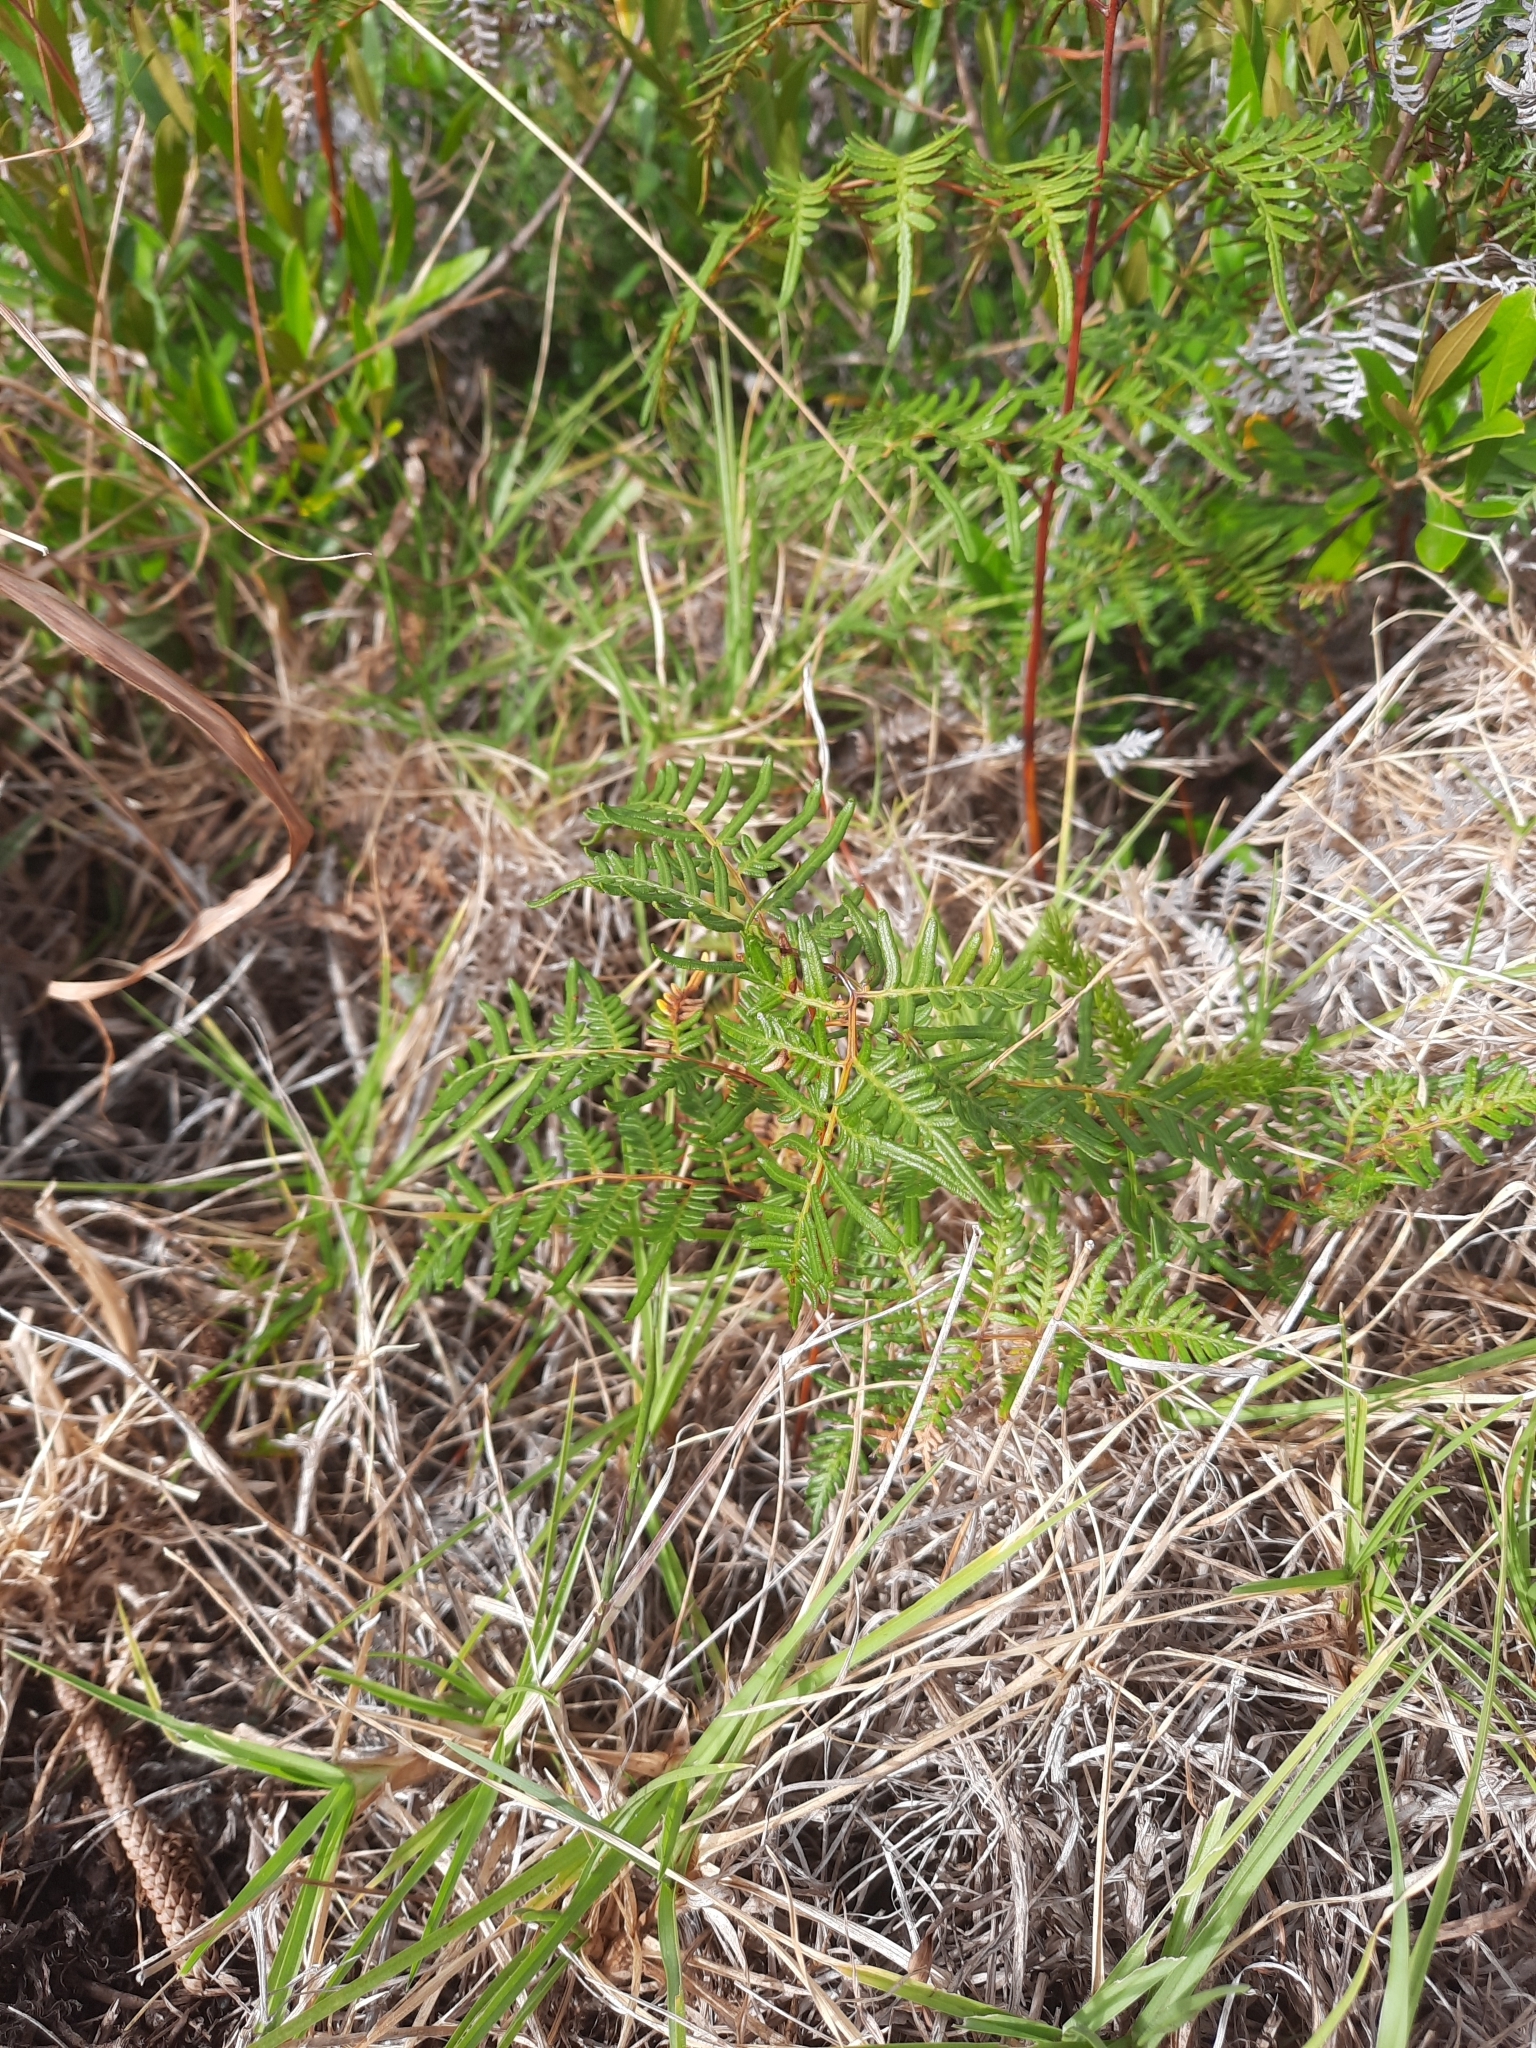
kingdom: Plantae
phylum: Tracheophyta
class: Polypodiopsida
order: Polypodiales
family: Dennstaedtiaceae
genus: Pteridium
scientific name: Pteridium esculentum
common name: Bracken fern
